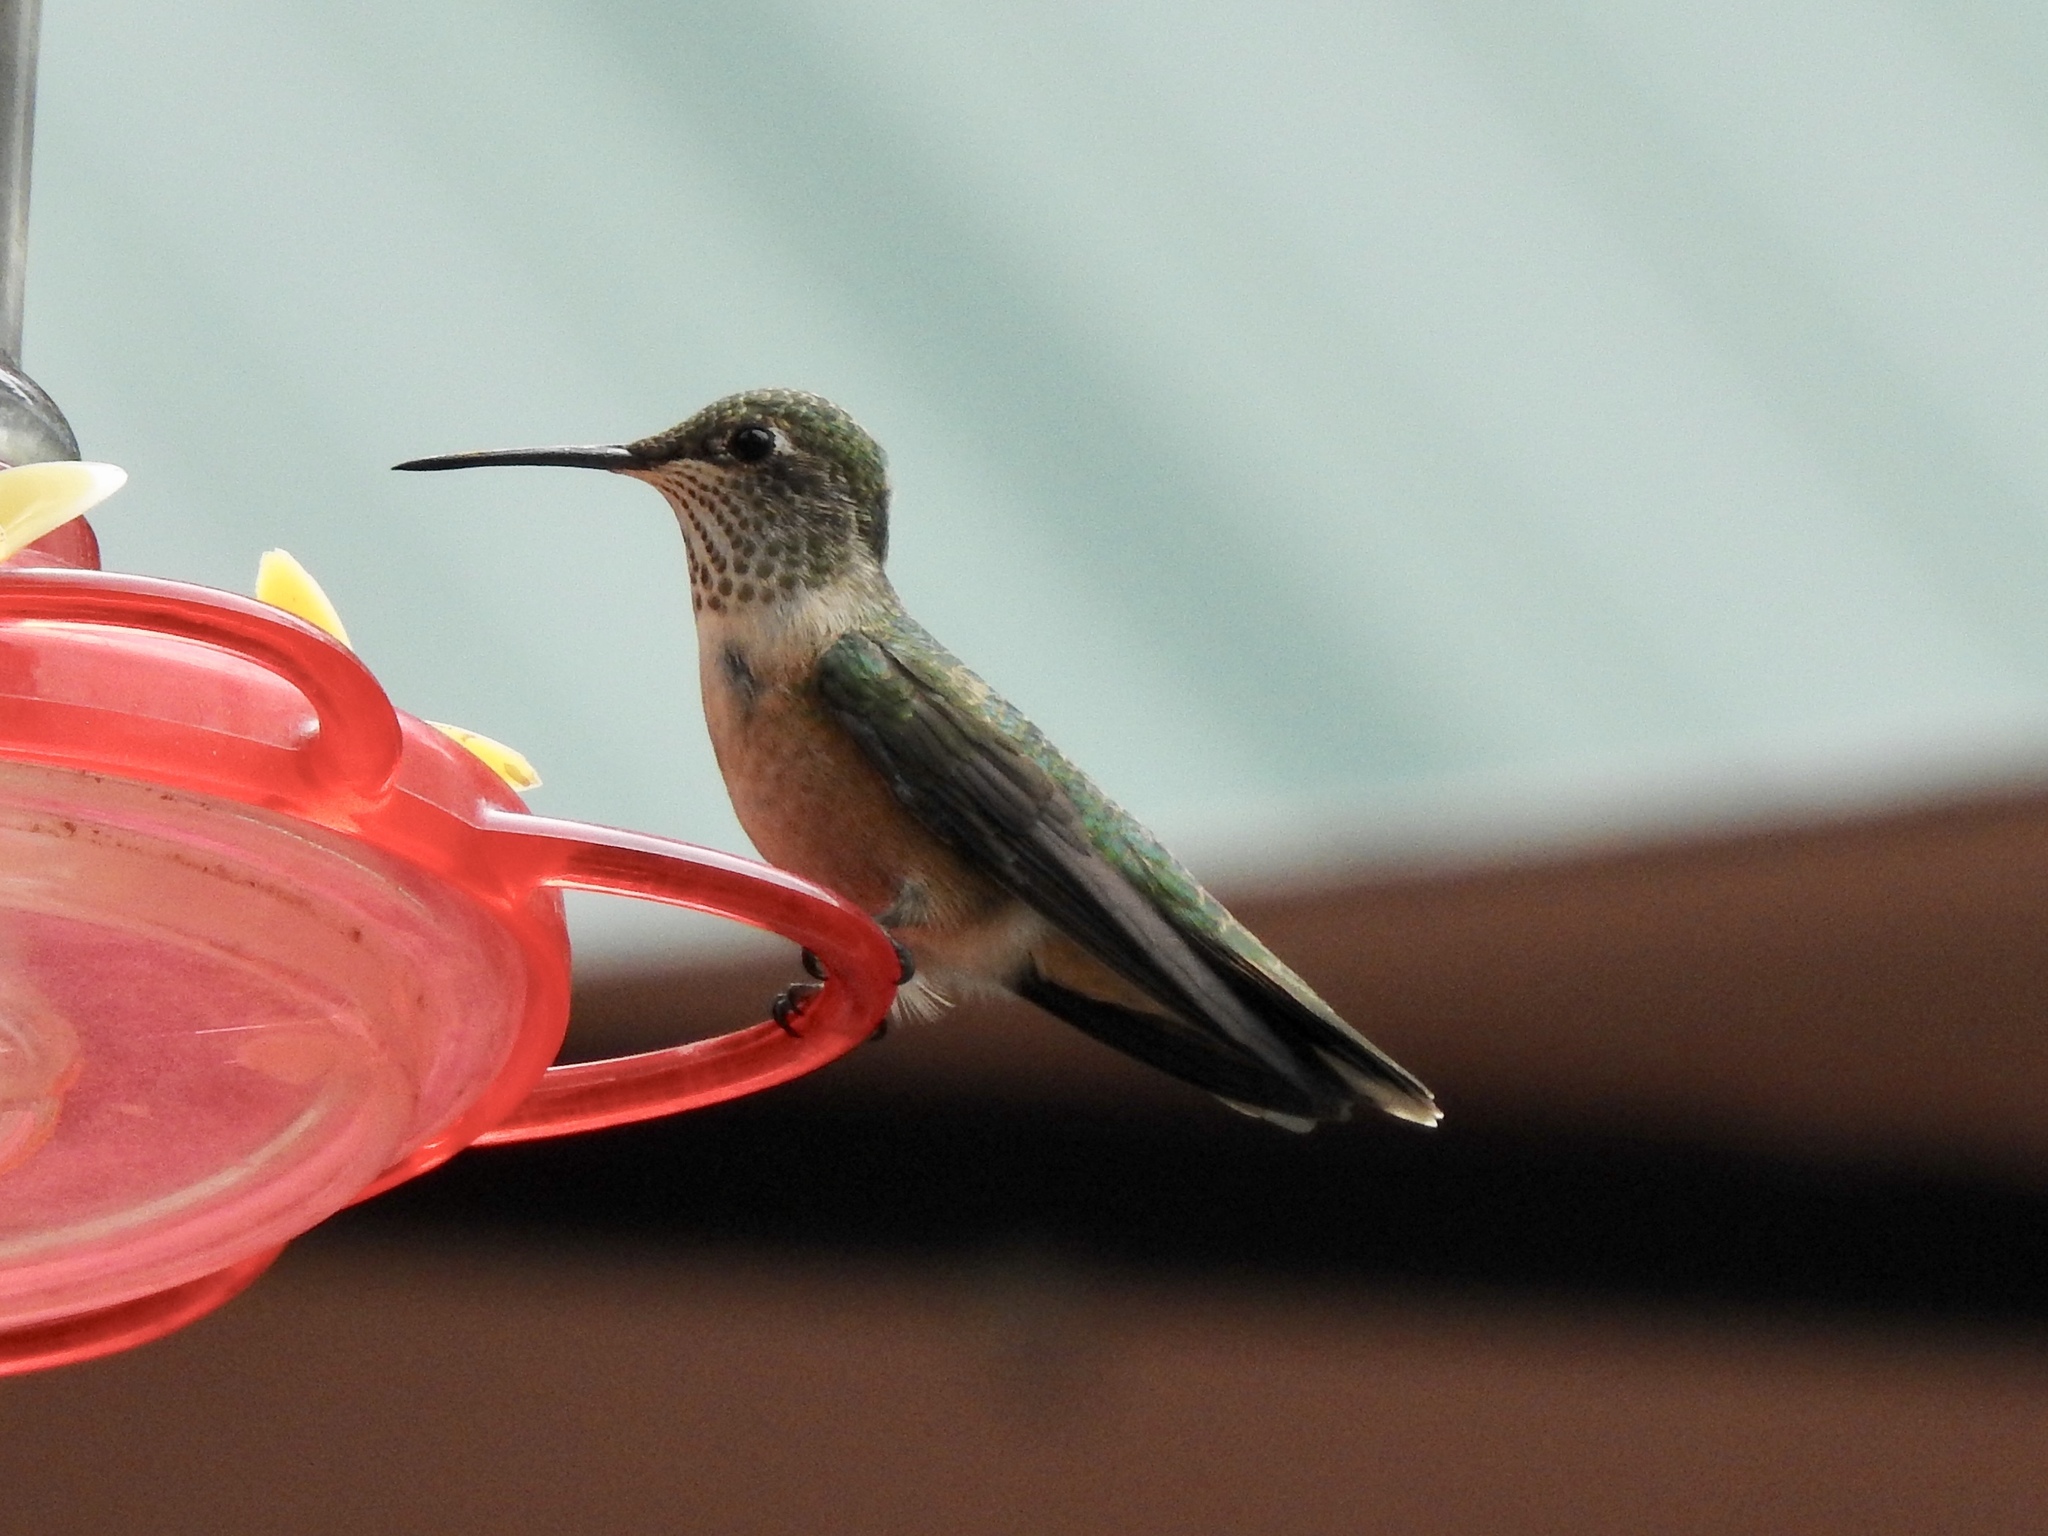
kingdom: Animalia
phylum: Chordata
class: Aves
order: Apodiformes
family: Trochilidae
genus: Selasphorus
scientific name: Selasphorus platycercus
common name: Broad-tailed hummingbird
